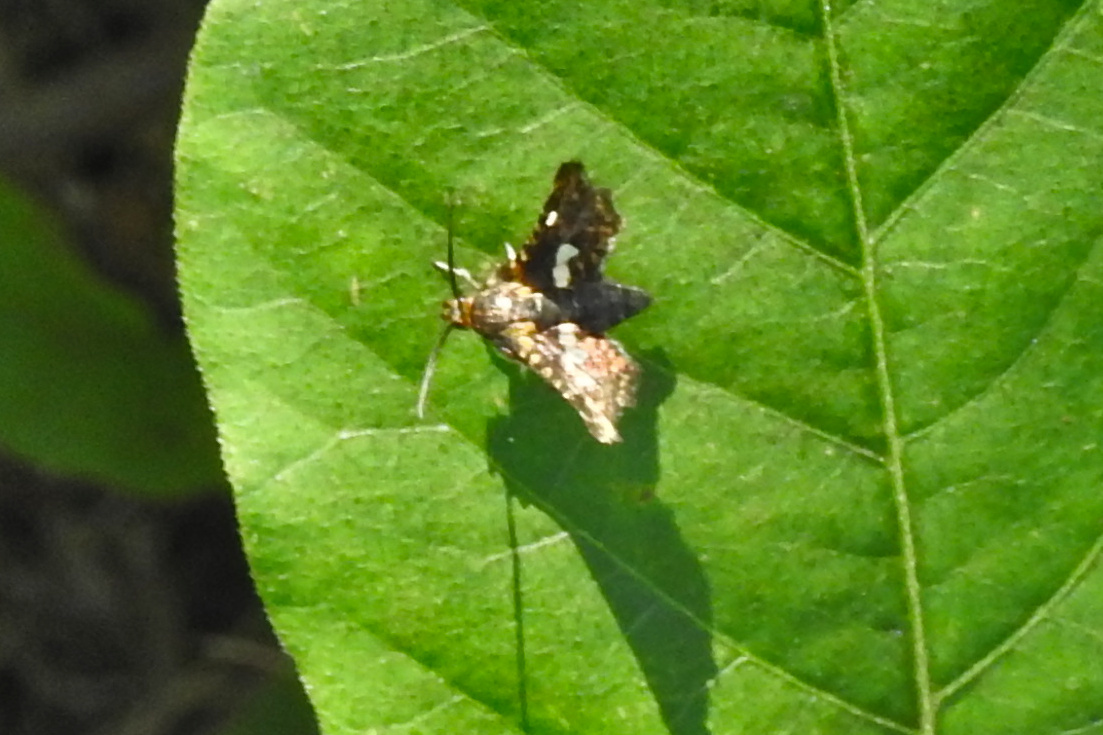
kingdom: Animalia
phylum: Arthropoda
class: Insecta
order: Lepidoptera
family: Thyrididae
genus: Thyris
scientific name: Thyris maculata
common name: Spotted thyris moth
